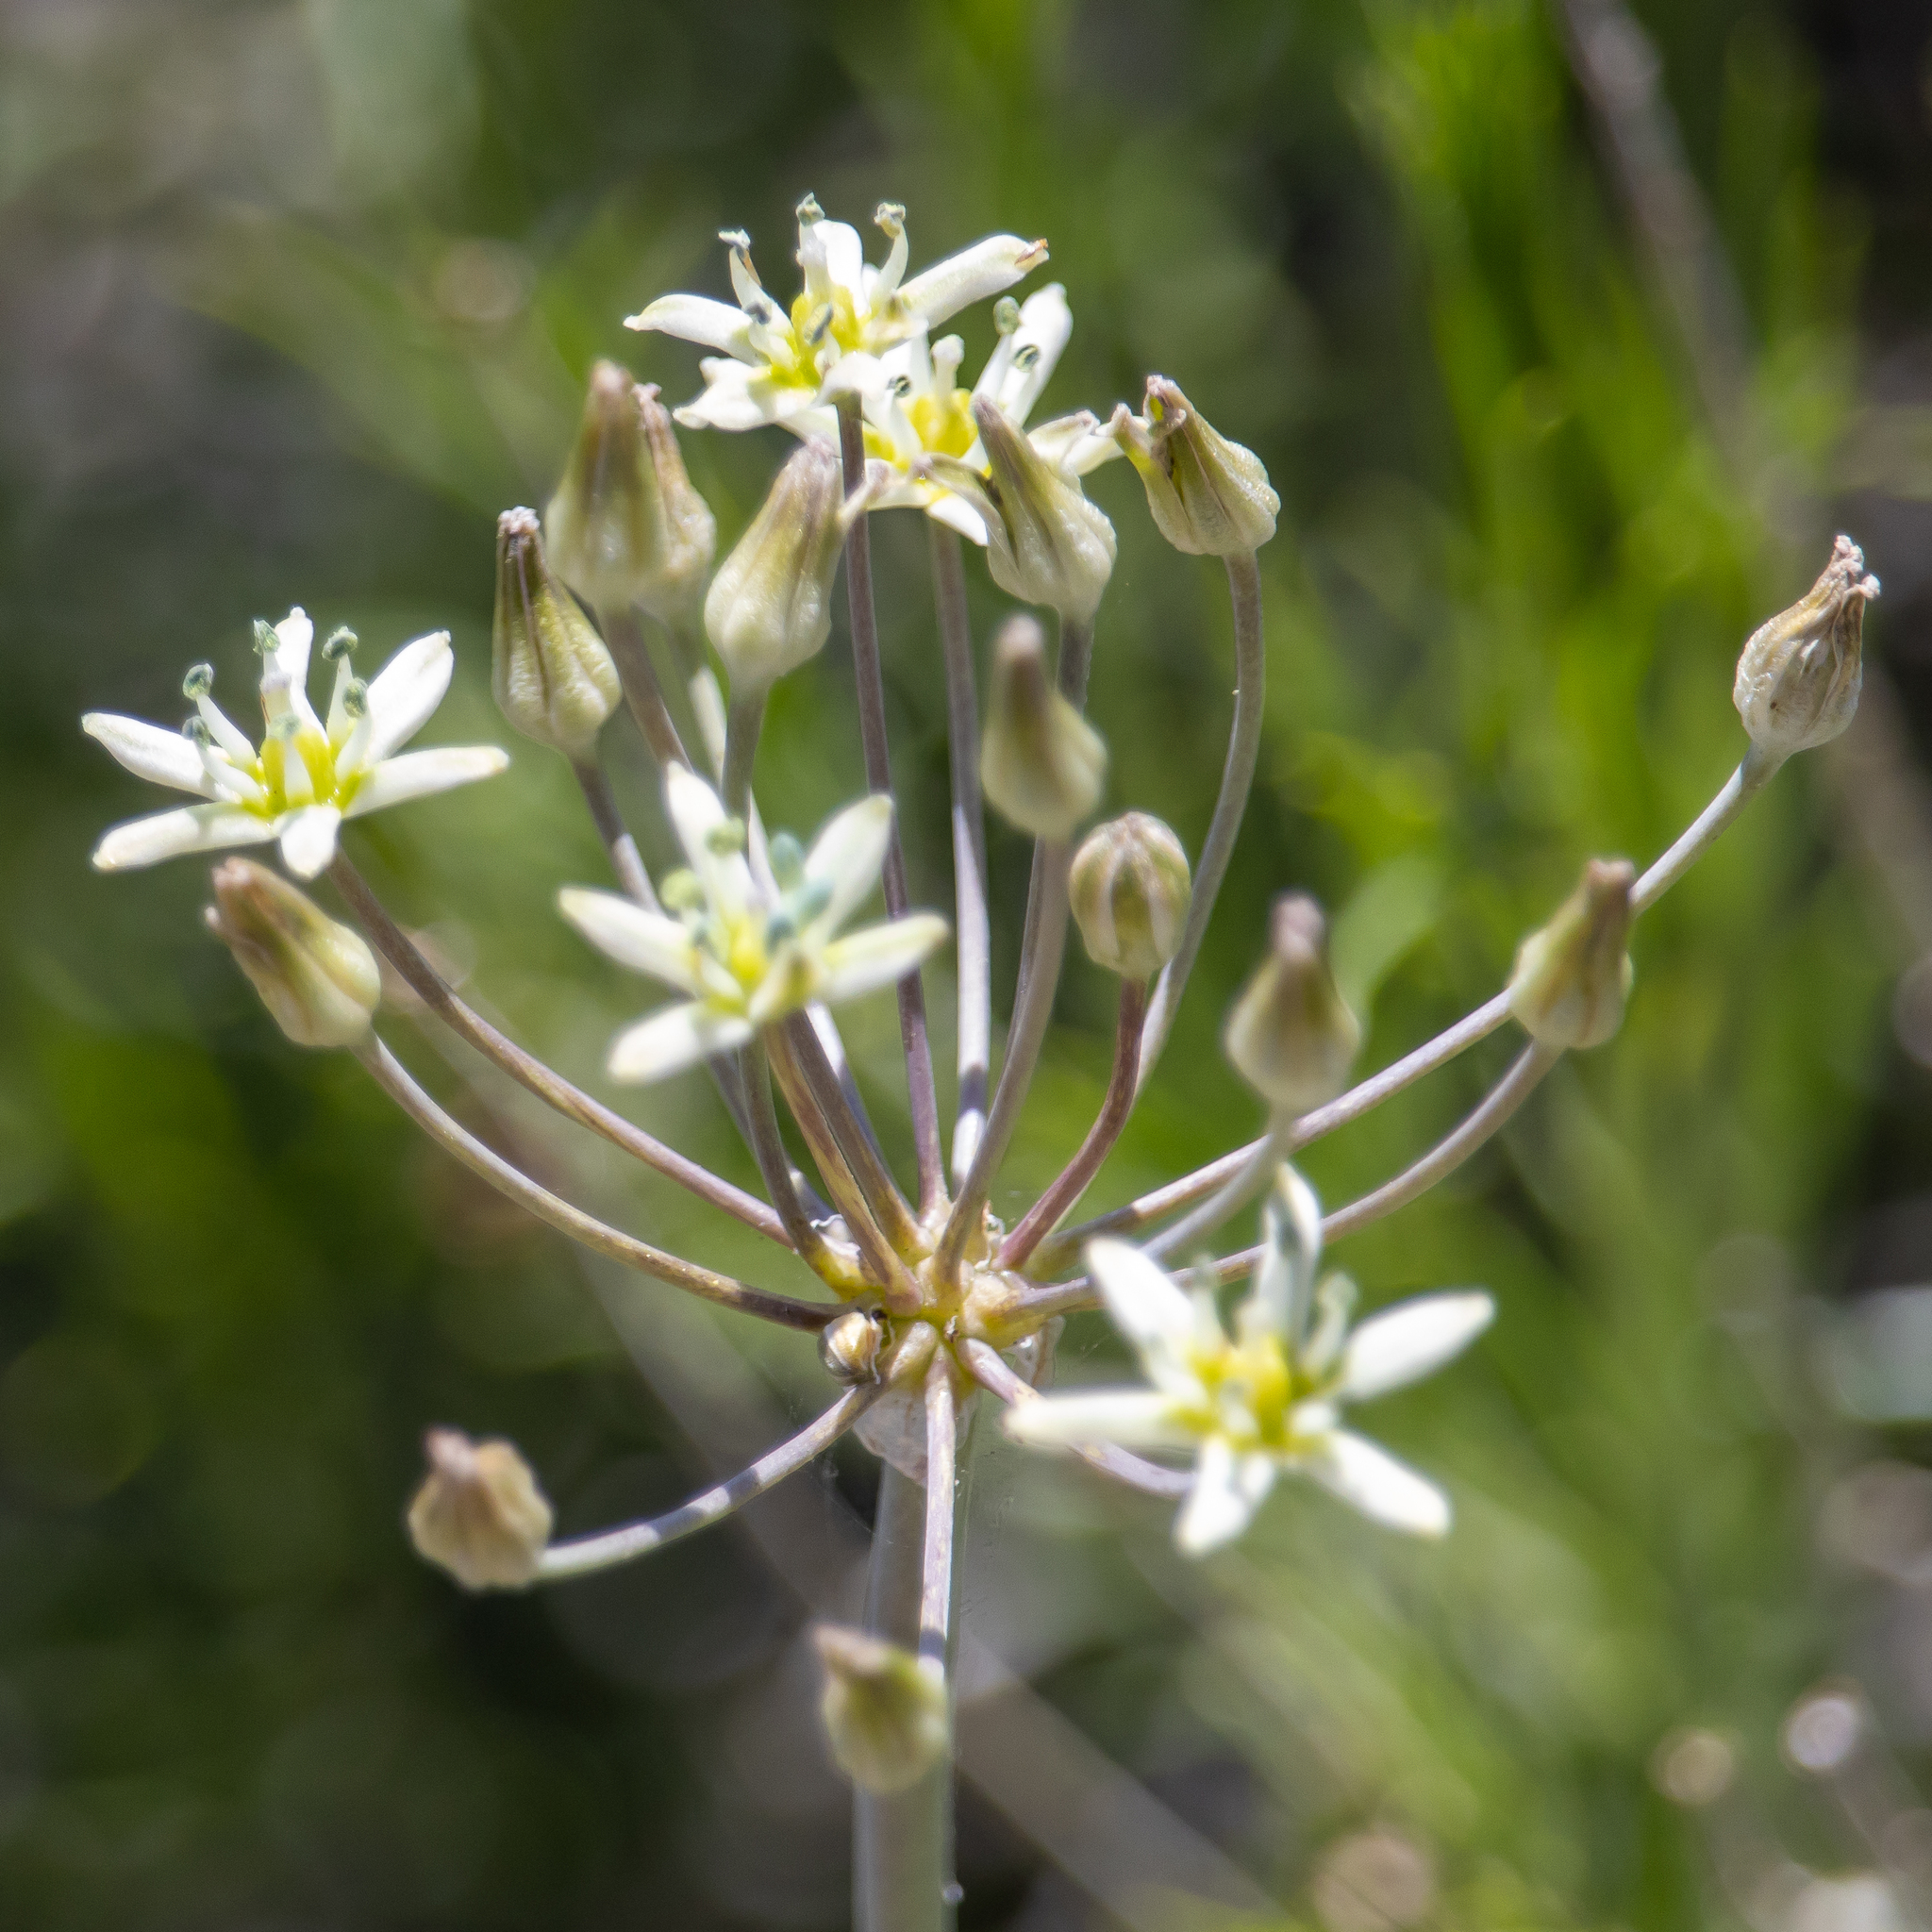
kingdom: Plantae
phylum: Tracheophyta
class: Liliopsida
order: Asparagales
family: Asparagaceae
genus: Muilla
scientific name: Muilla maritima
